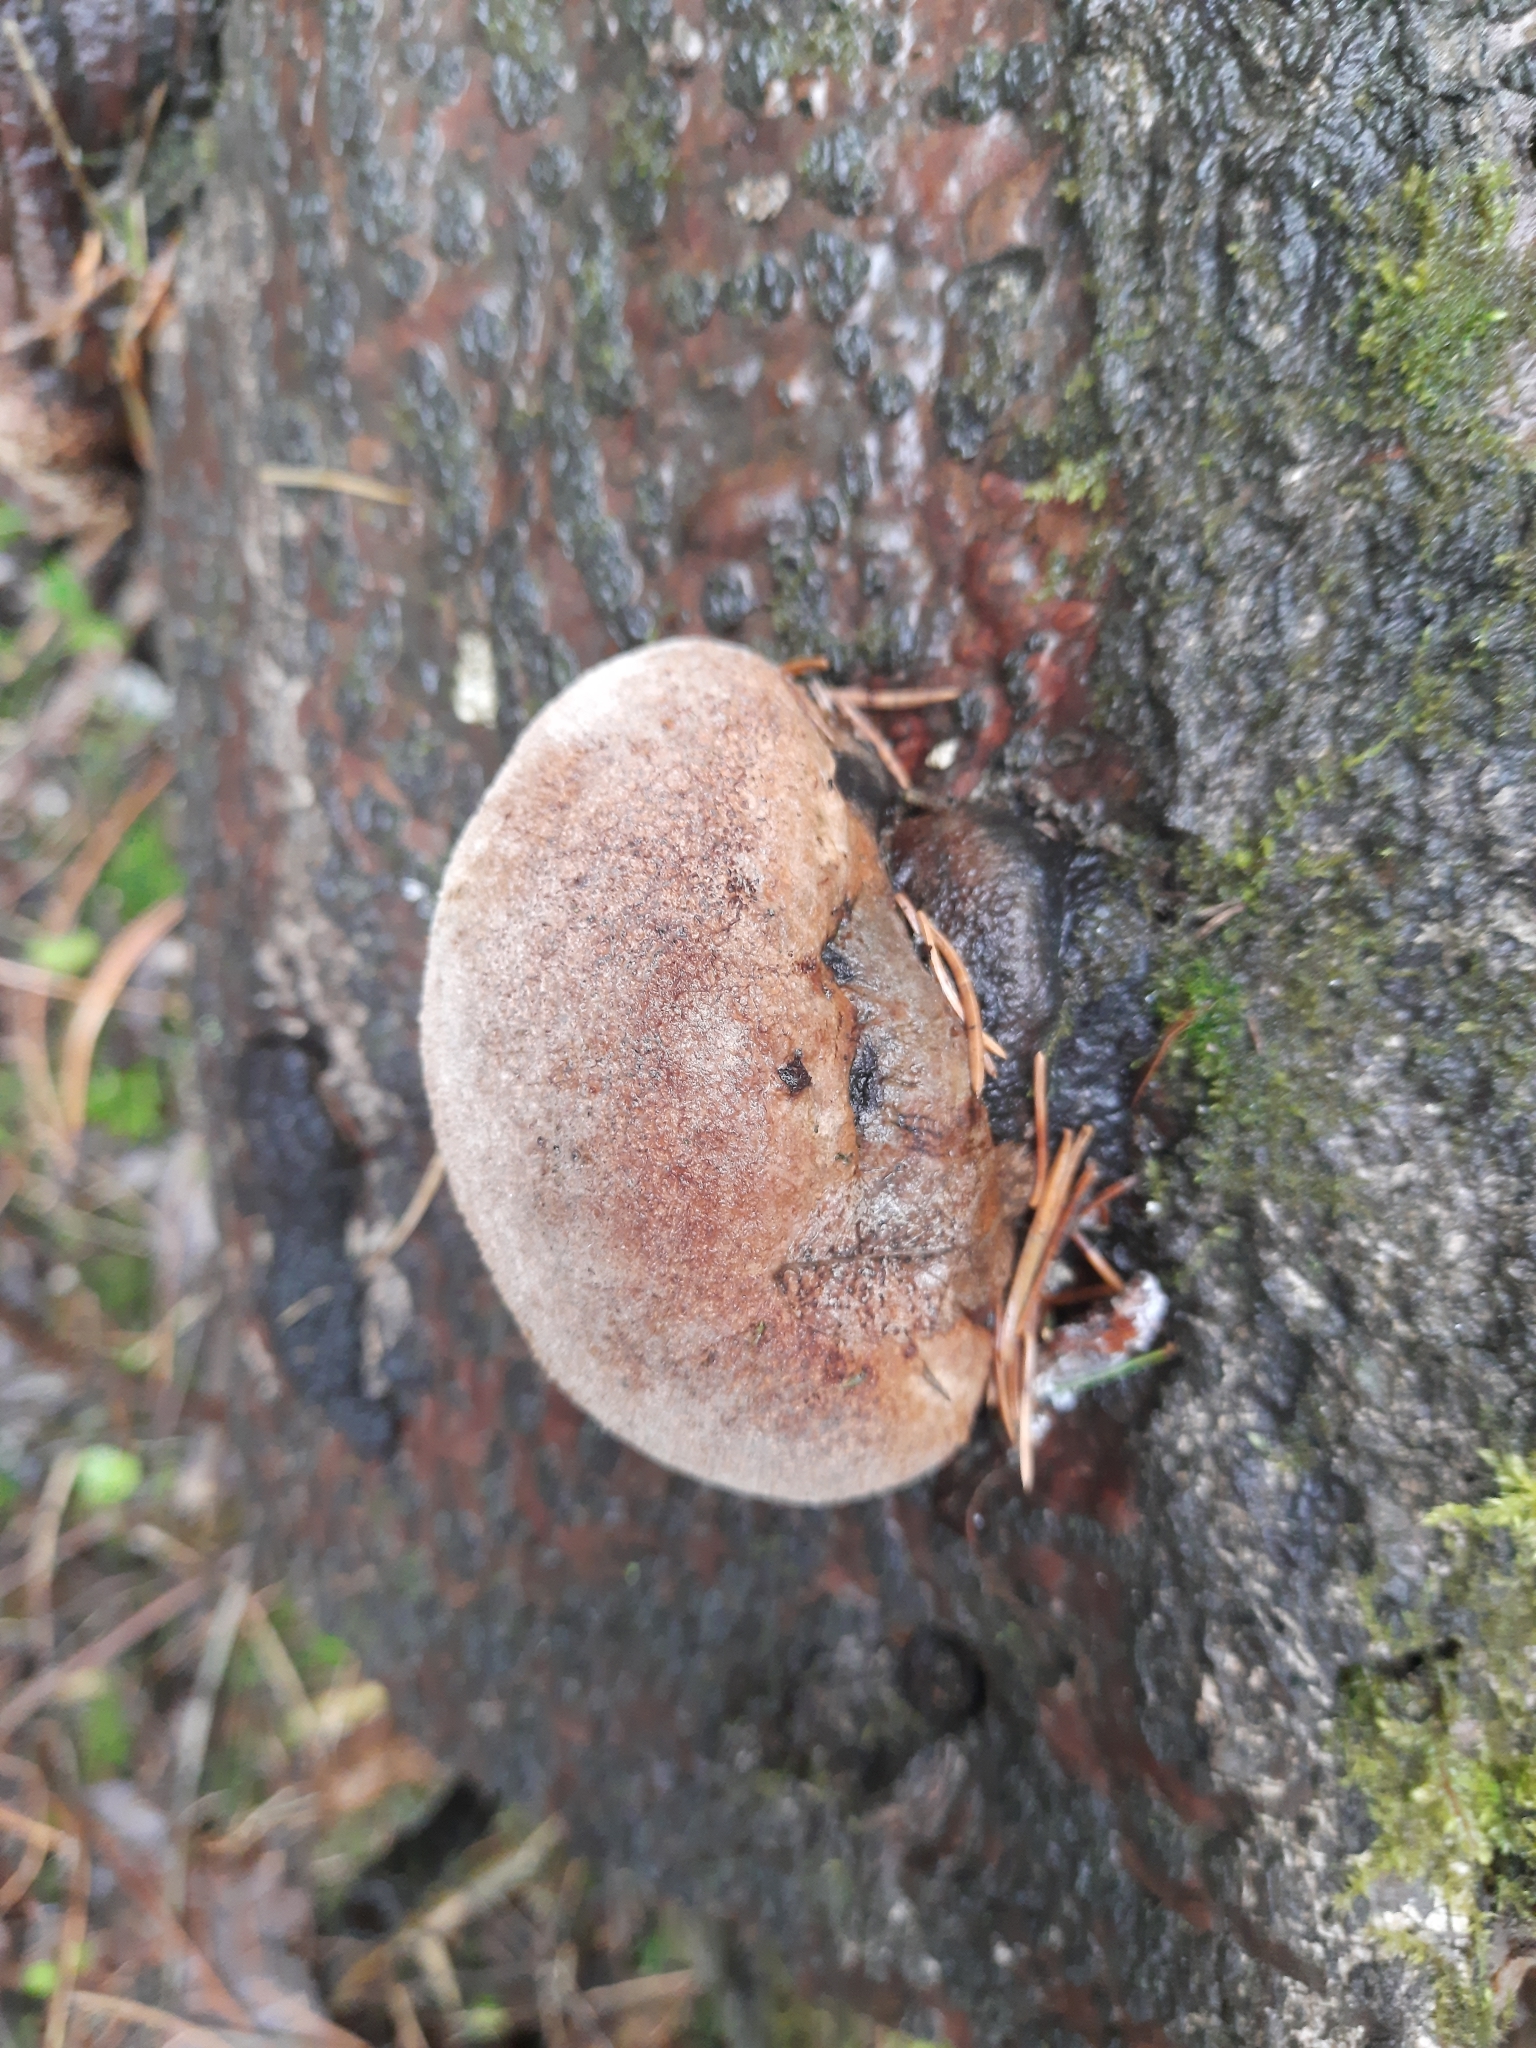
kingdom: Fungi
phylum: Basidiomycota
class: Agaricomycetes
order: Hymenochaetales
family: Hymenochaetaceae
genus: Phellinus
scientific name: Phellinus hartigii
